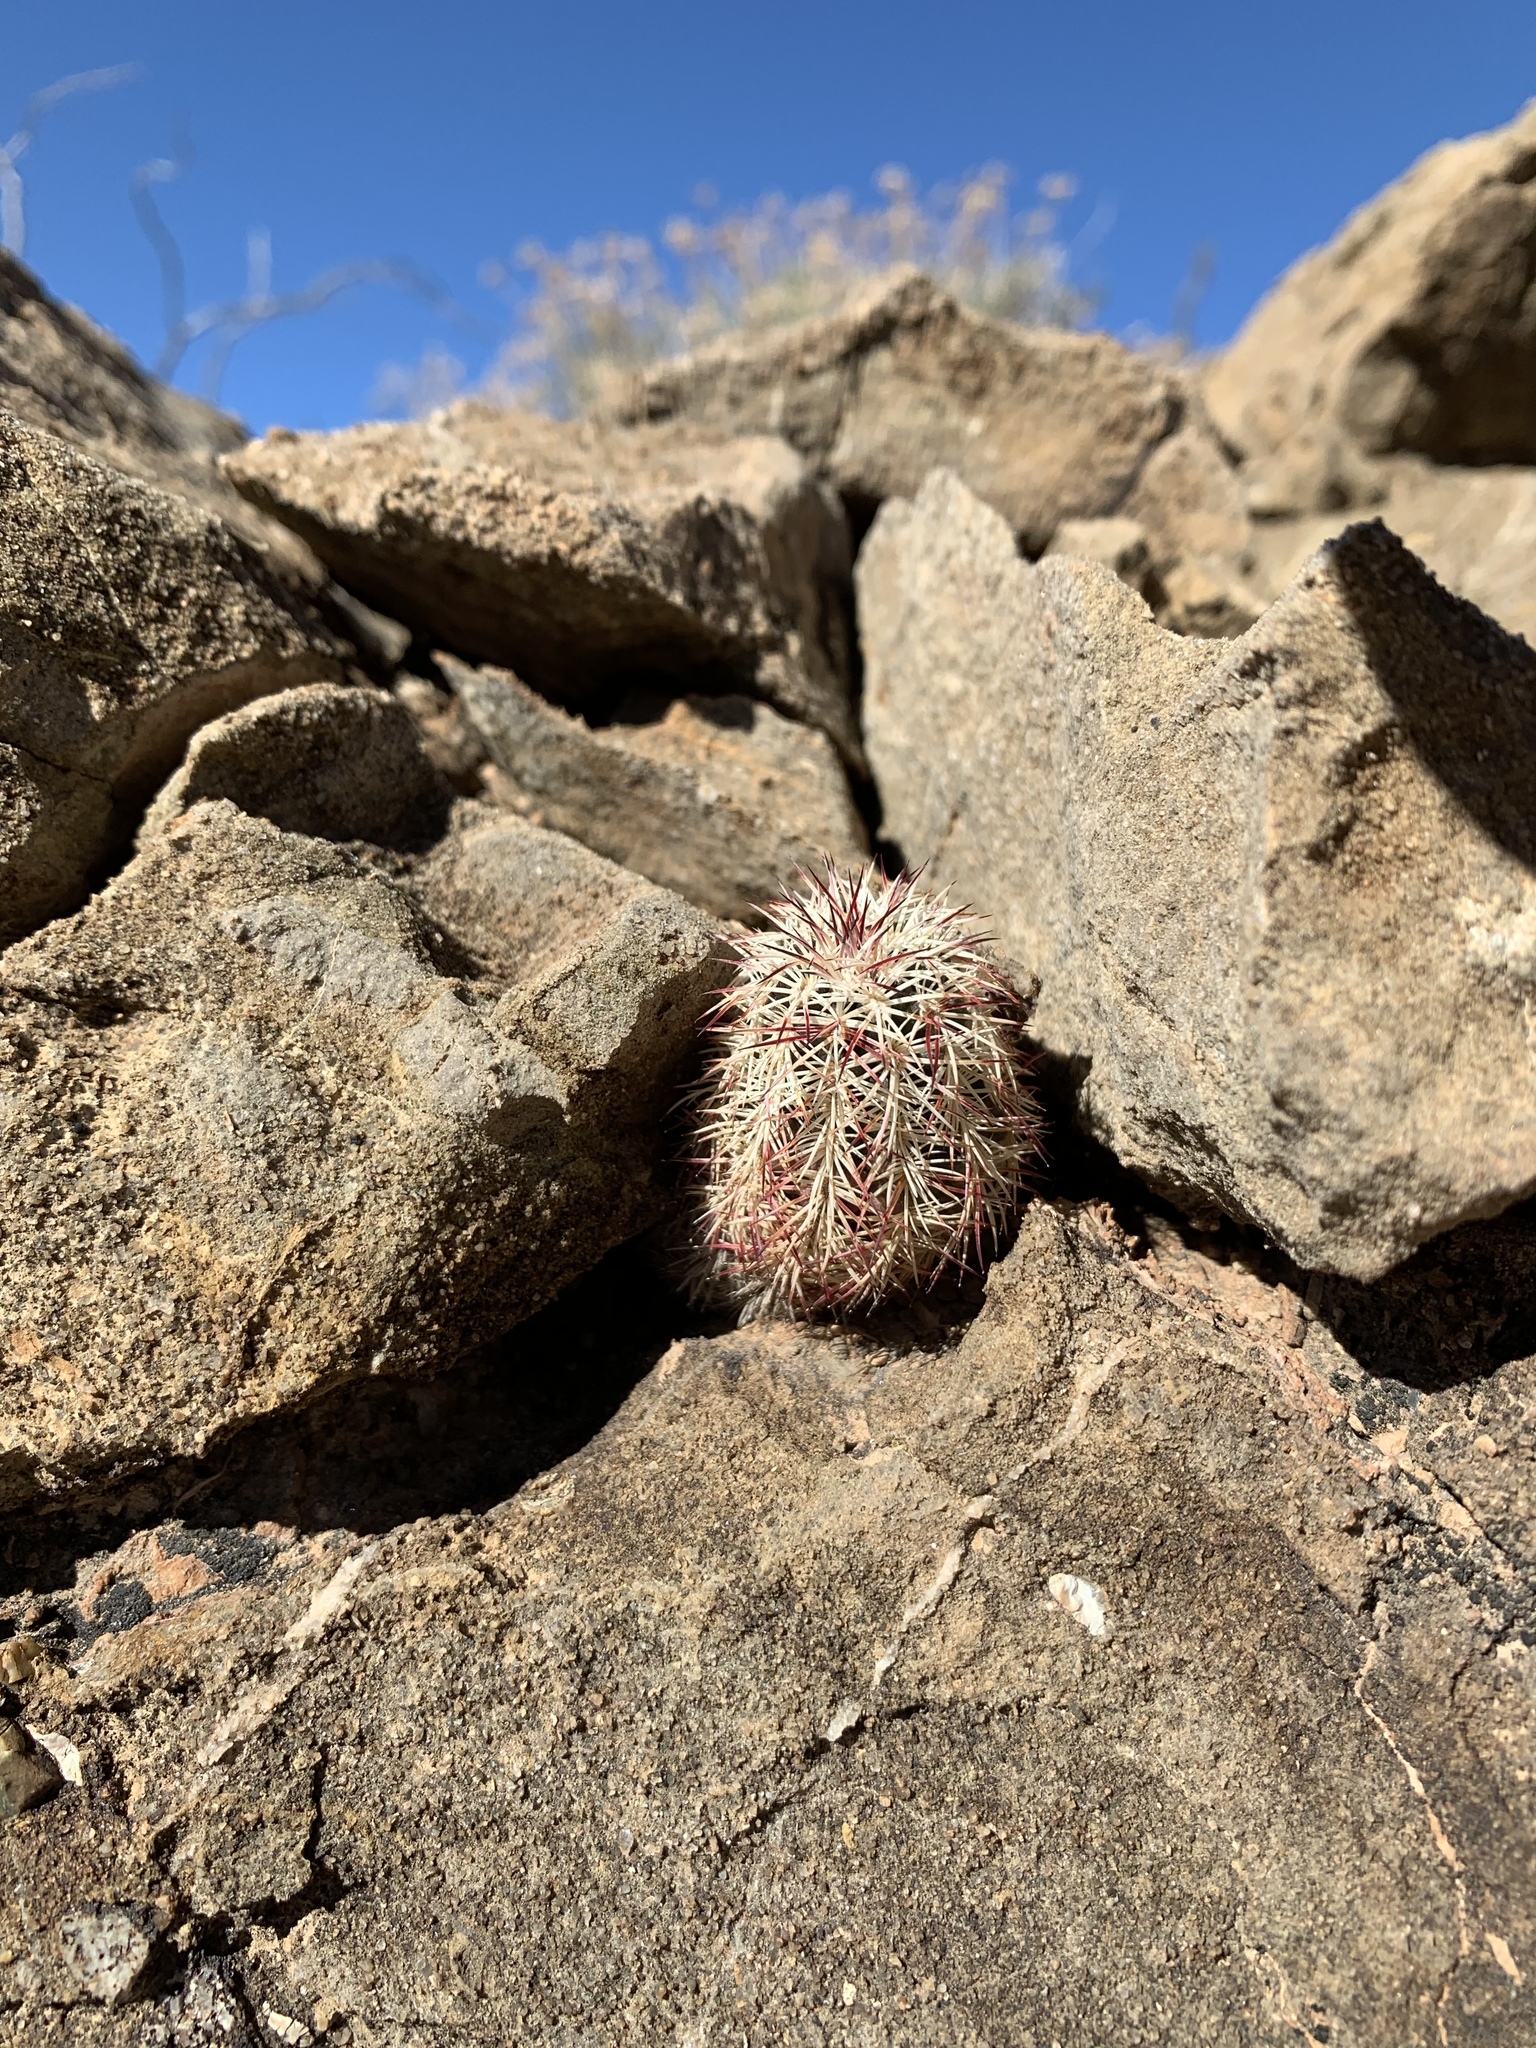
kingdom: Plantae
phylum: Tracheophyta
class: Magnoliopsida
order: Caryophyllales
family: Cactaceae
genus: Echinocereus
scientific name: Echinocereus viridiflorus
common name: Nylon hedgehog cactus
